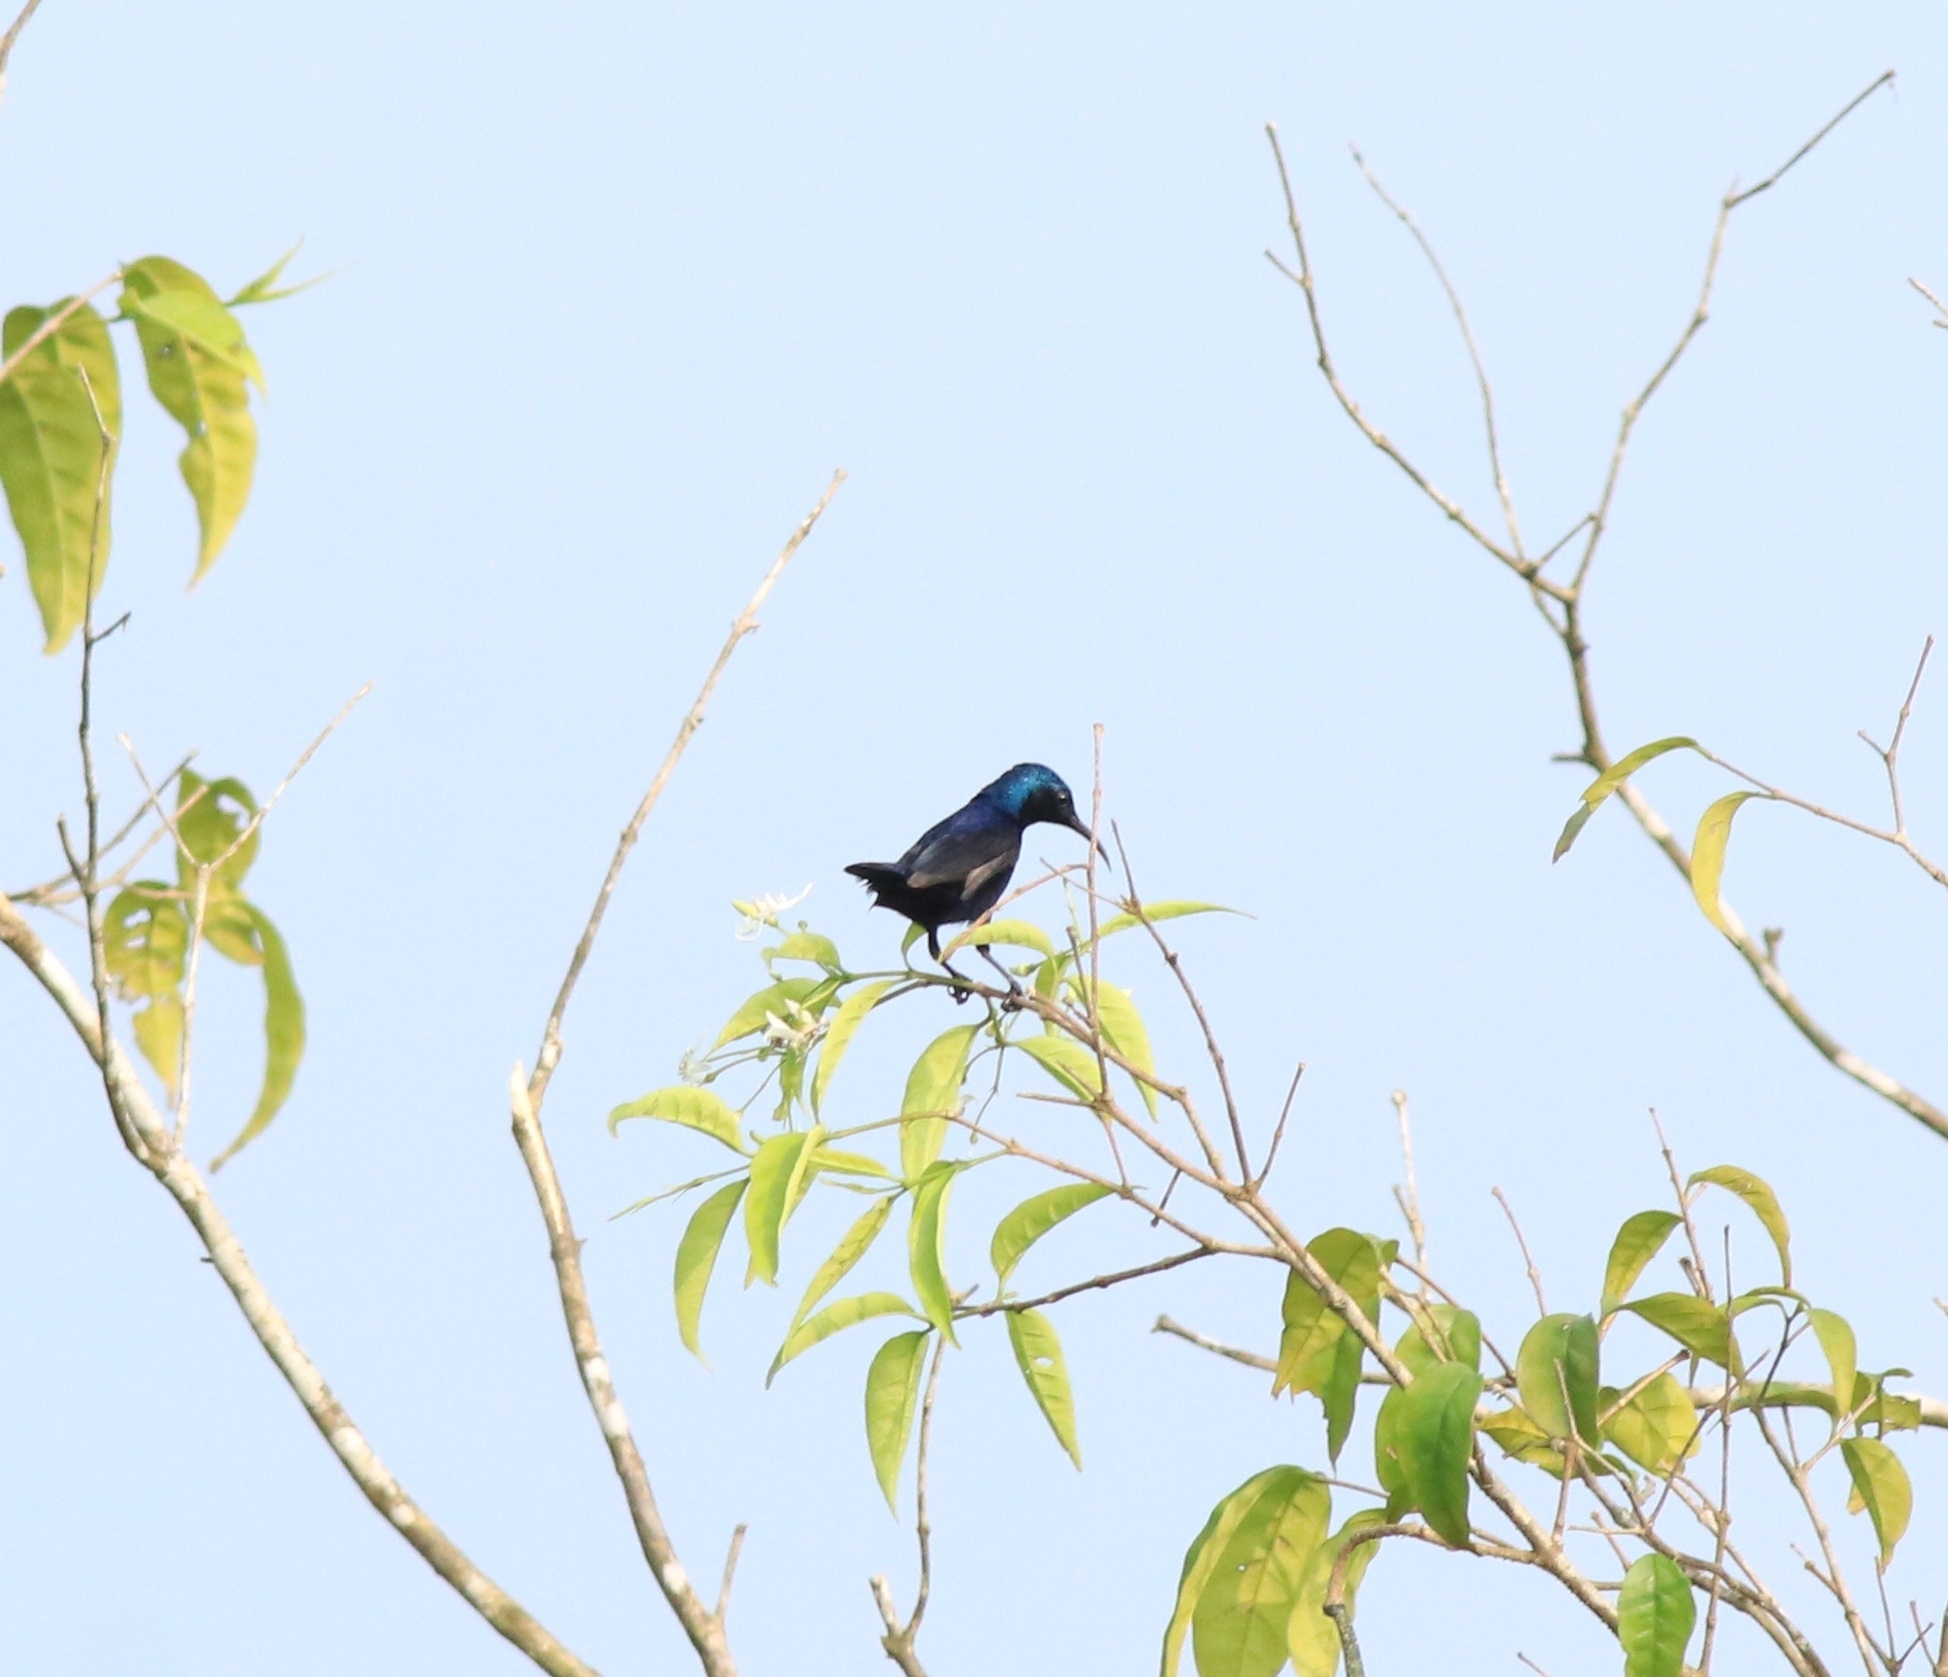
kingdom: Animalia
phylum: Chordata
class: Aves
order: Passeriformes
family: Nectariniidae
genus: Cinnyris
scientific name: Cinnyris asiaticus
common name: Purple sunbird
